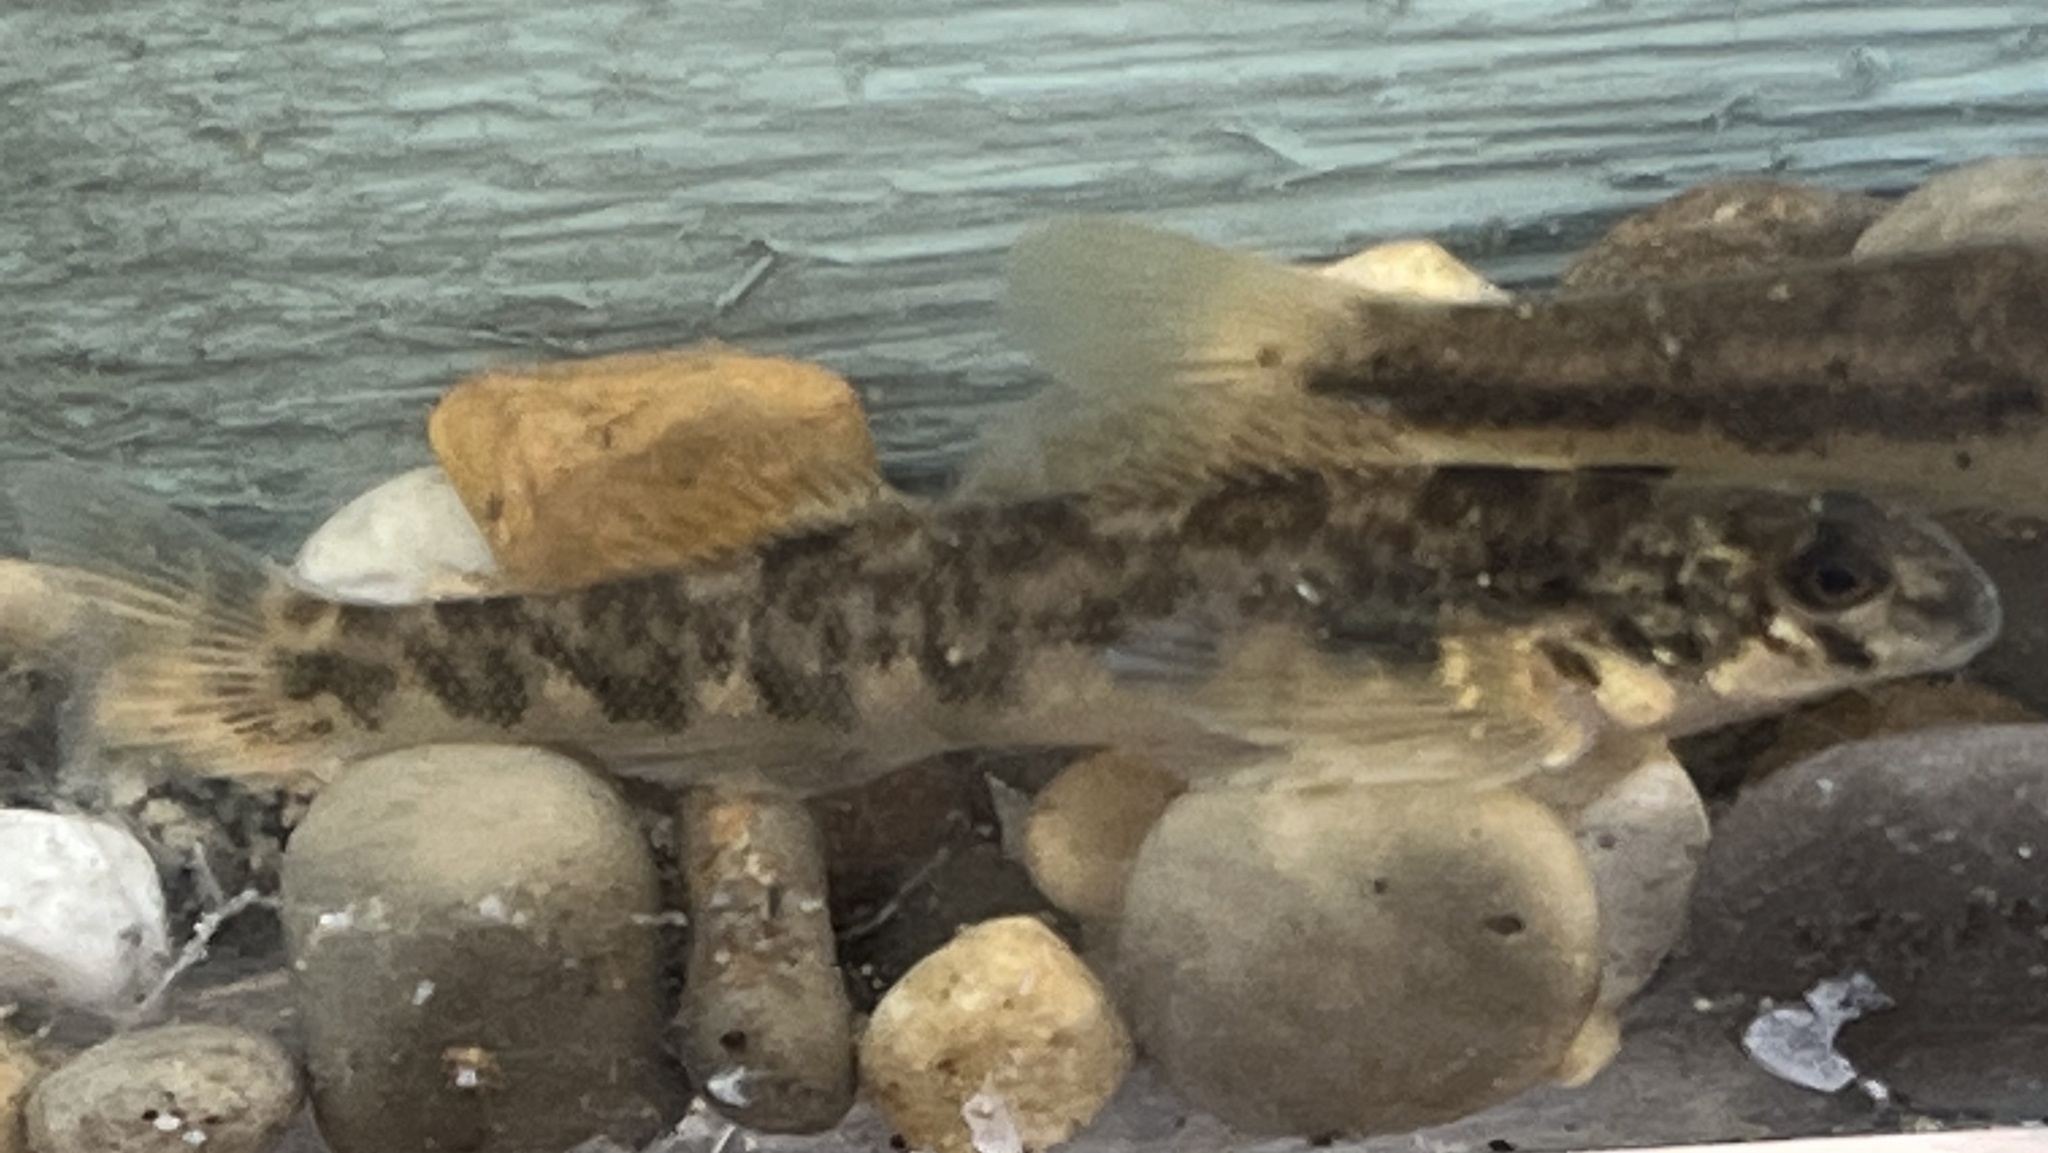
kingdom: Animalia
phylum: Chordata
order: Perciformes
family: Percidae
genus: Etheostoma
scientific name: Etheostoma blennioides
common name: Greenside darter
